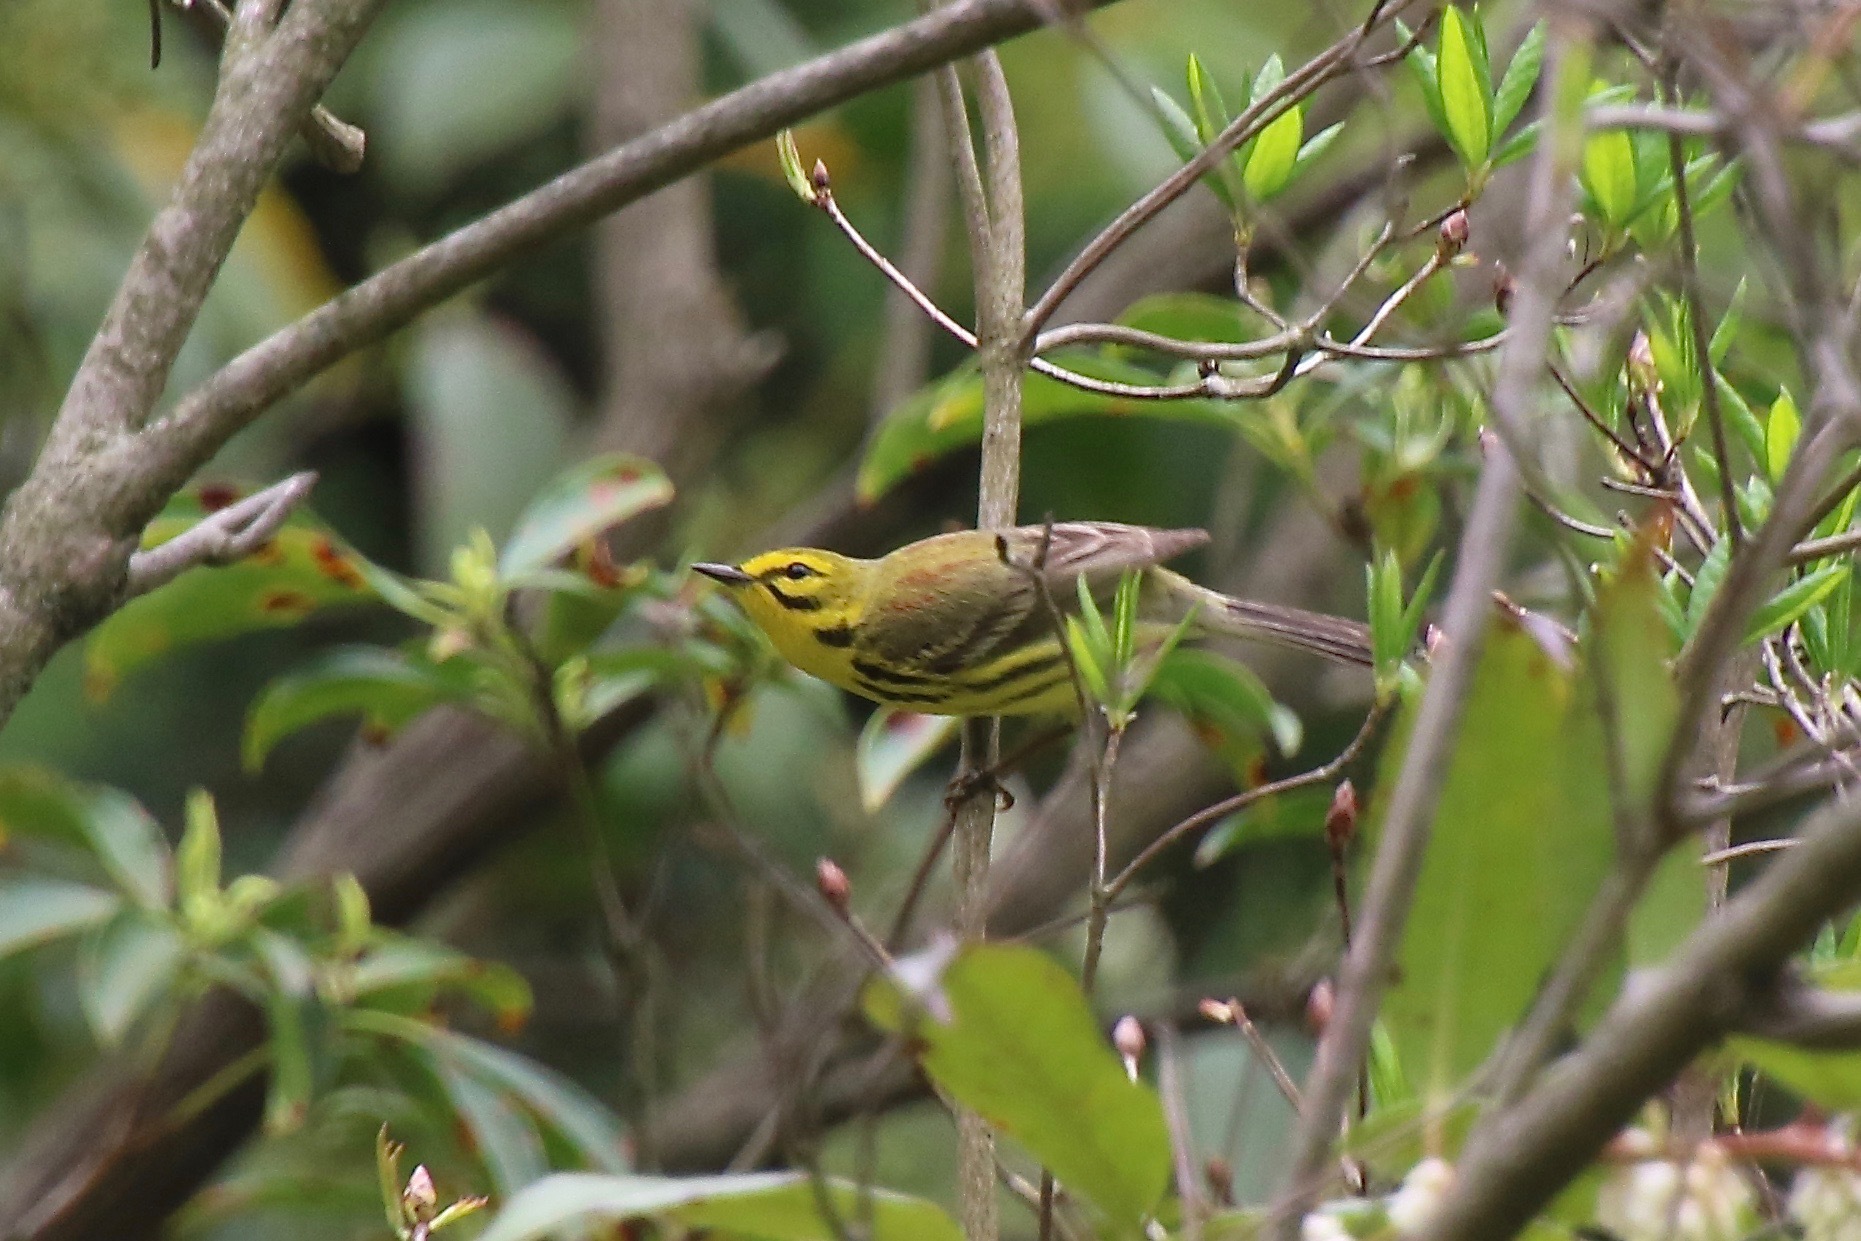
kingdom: Animalia
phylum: Chordata
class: Aves
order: Passeriformes
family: Parulidae
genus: Setophaga
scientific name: Setophaga discolor
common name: Prairie warbler
